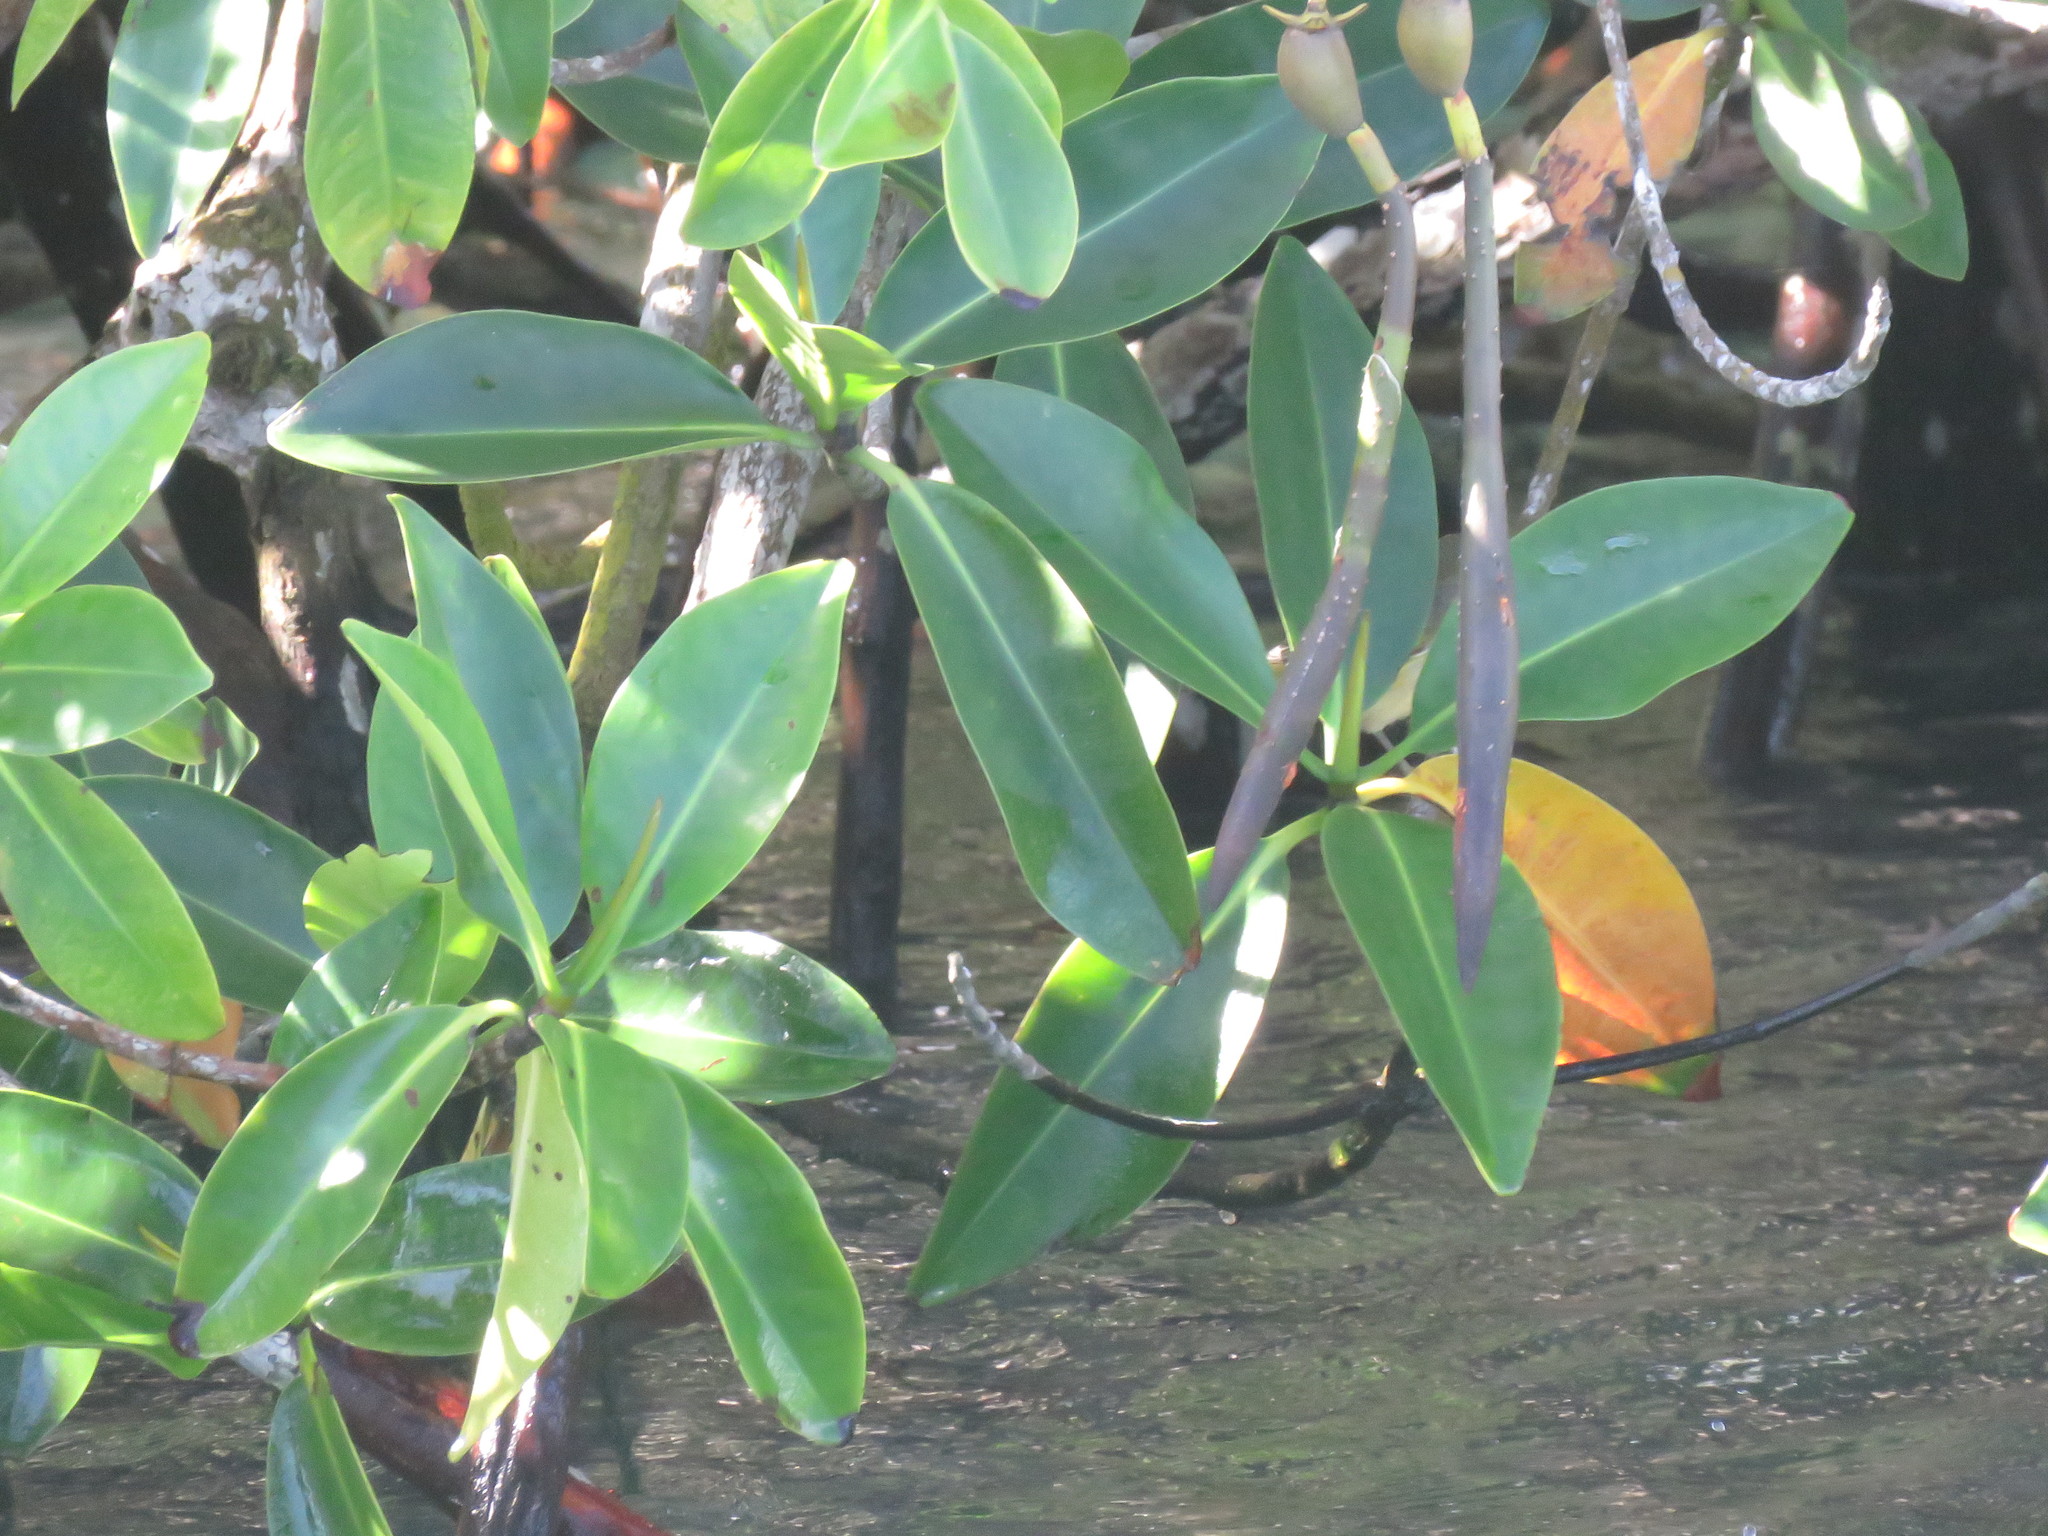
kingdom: Plantae
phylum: Tracheophyta
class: Magnoliopsida
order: Malpighiales
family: Rhizophoraceae
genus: Rhizophora
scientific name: Rhizophora mangle
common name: Red mangrove
